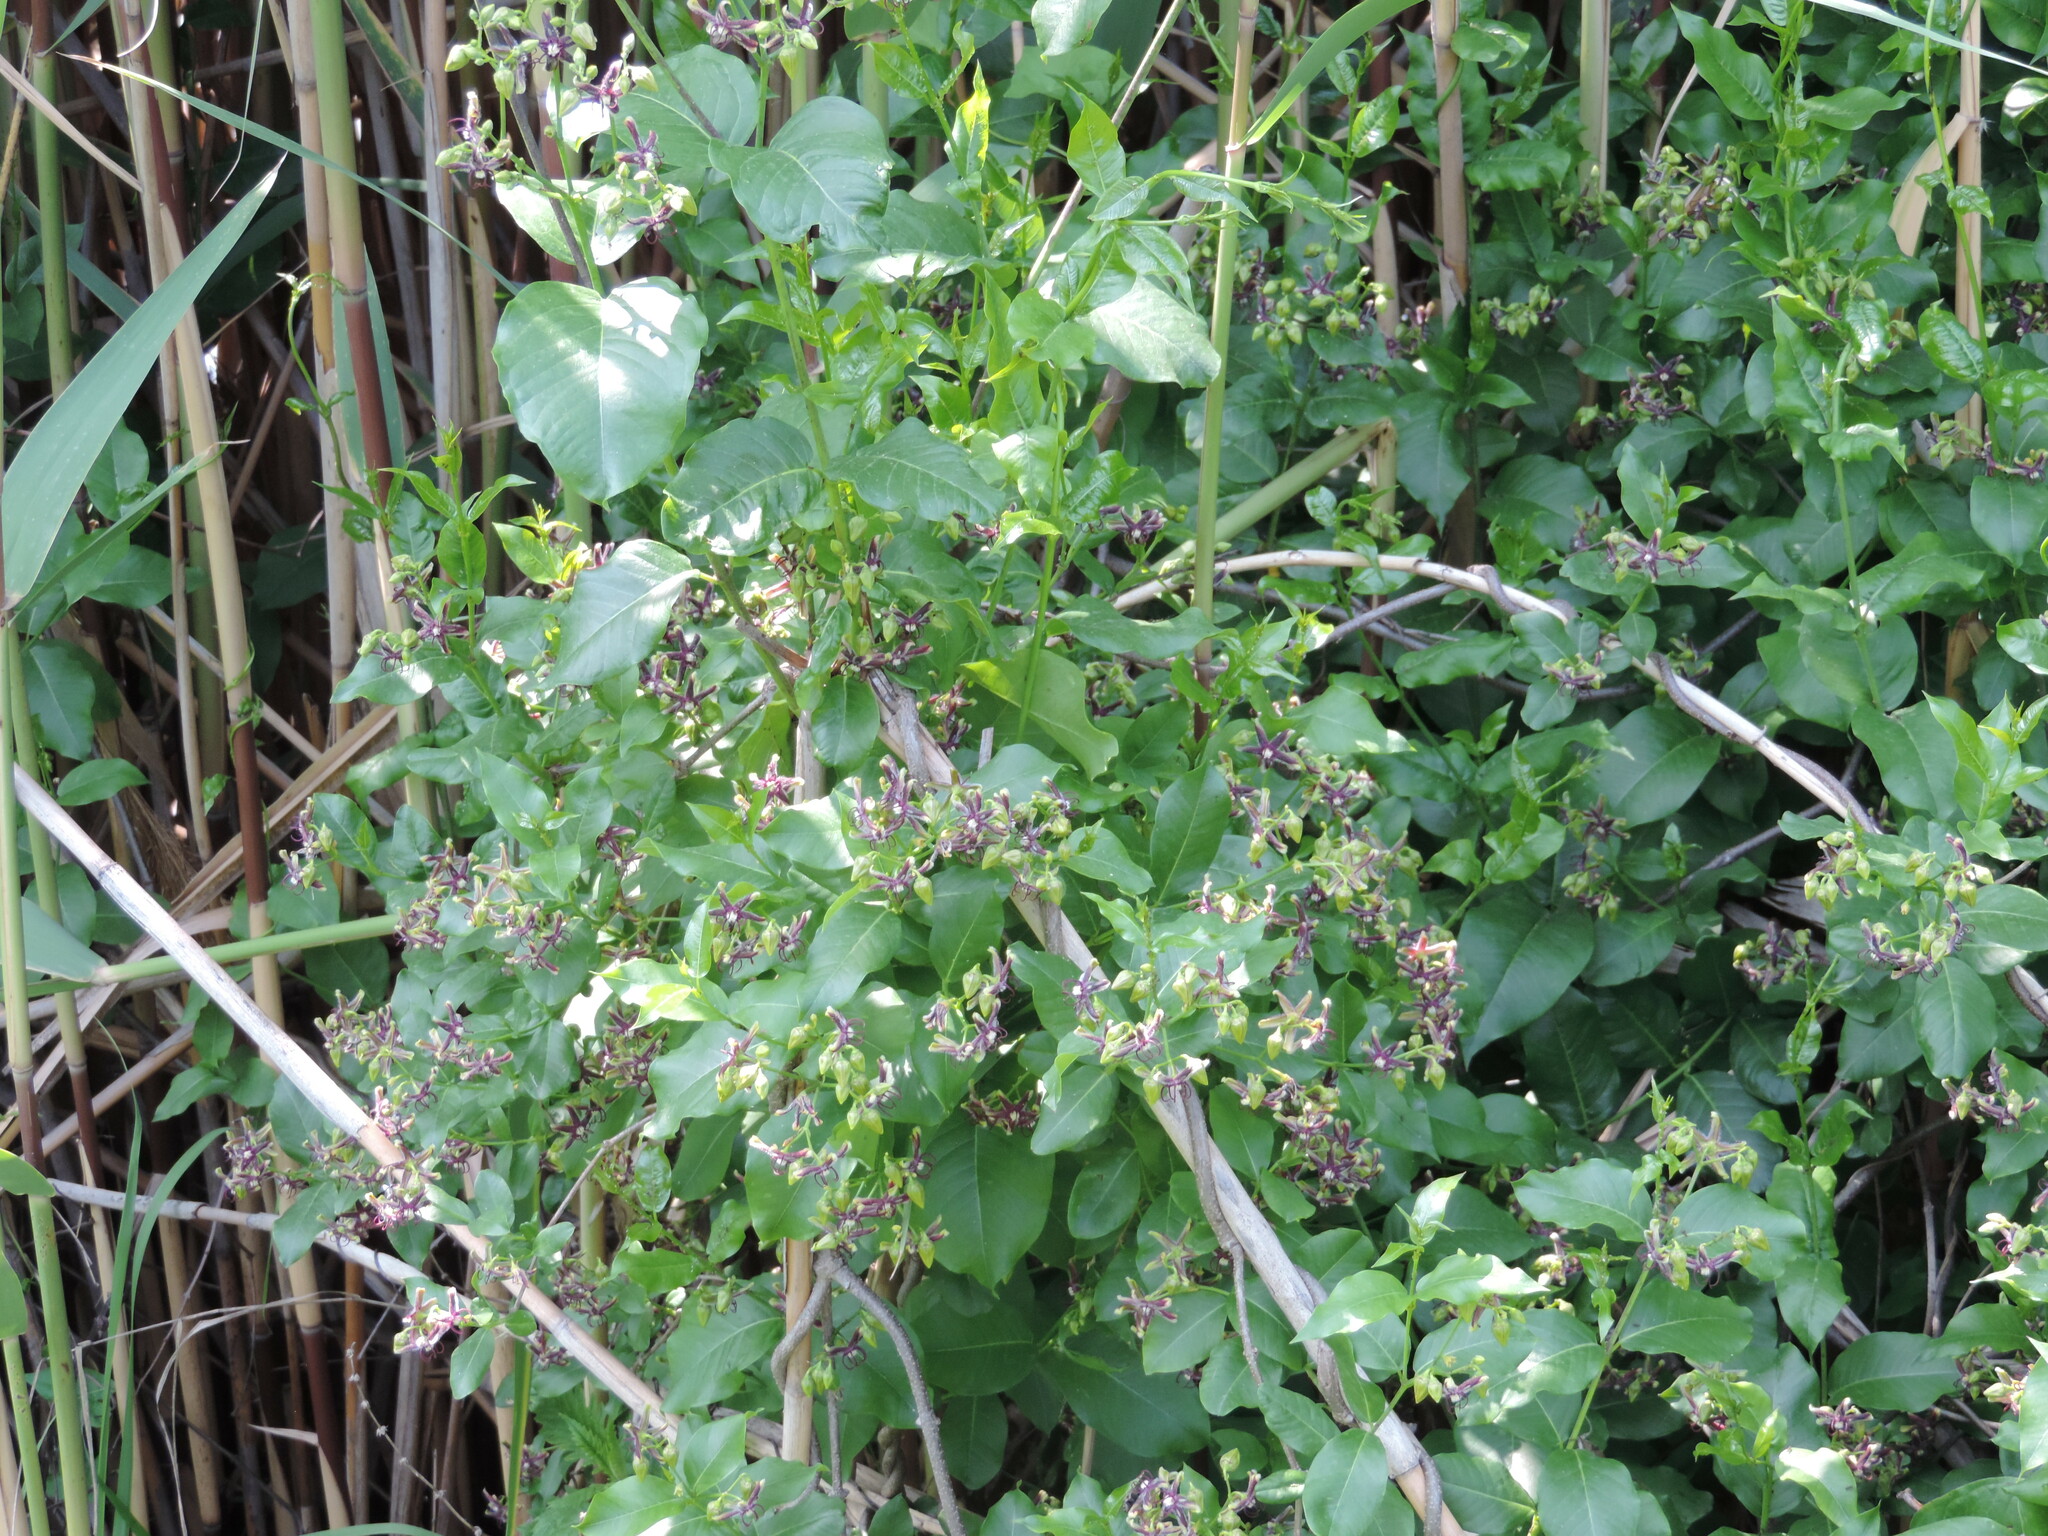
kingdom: Plantae
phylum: Tracheophyta
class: Magnoliopsida
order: Gentianales
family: Apocynaceae
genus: Periploca
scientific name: Periploca graeca
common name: Silkvine
